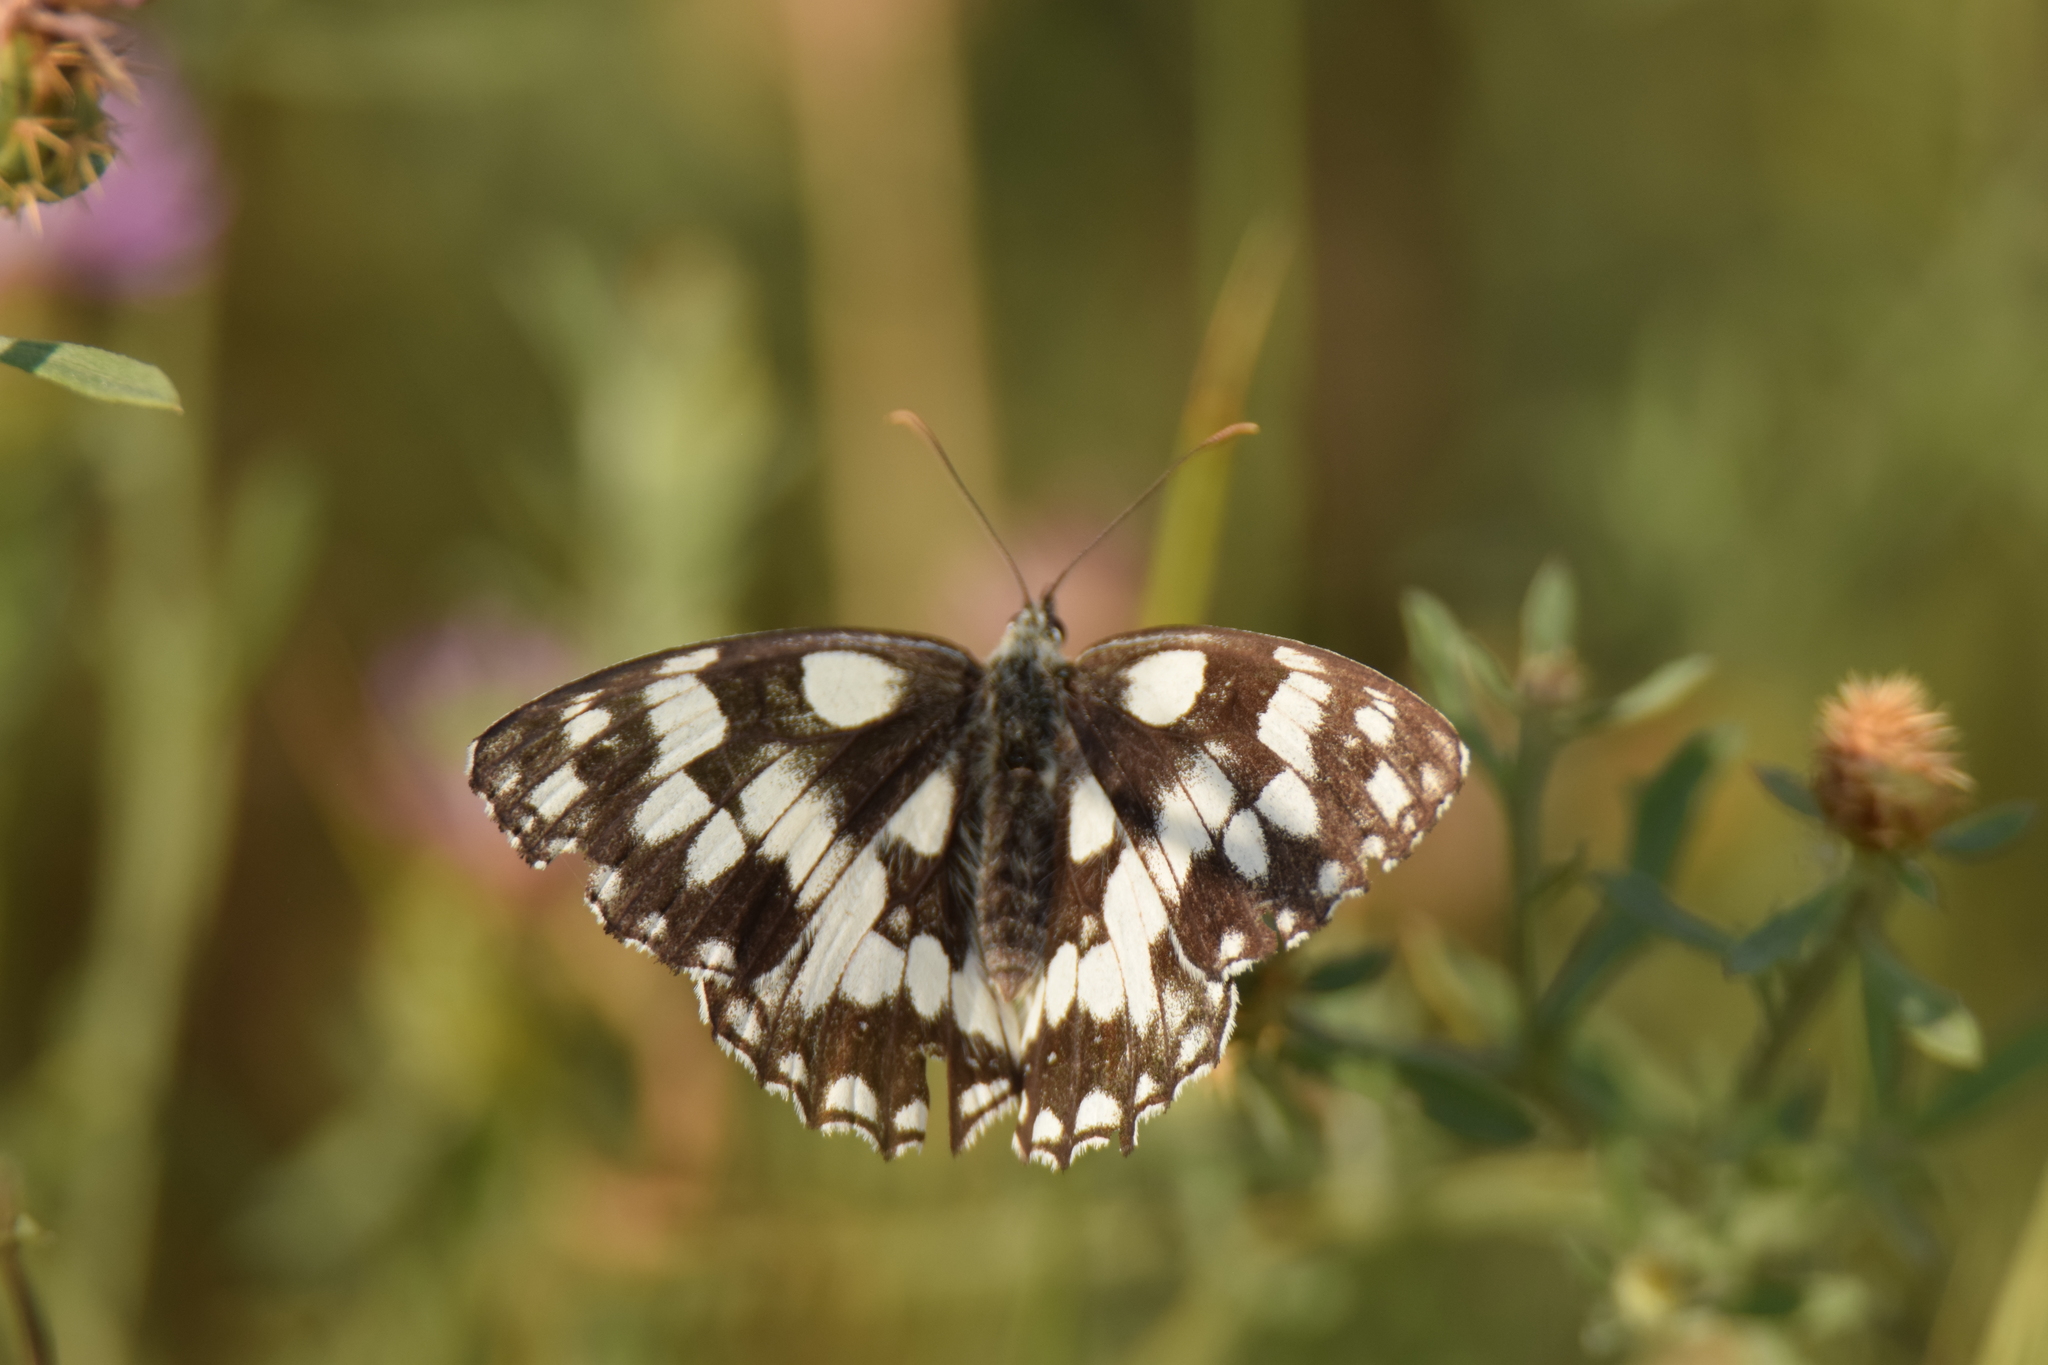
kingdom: Animalia
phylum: Arthropoda
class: Insecta
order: Lepidoptera
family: Nymphalidae
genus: Melanargia
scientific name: Melanargia galathea
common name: Marbled white
